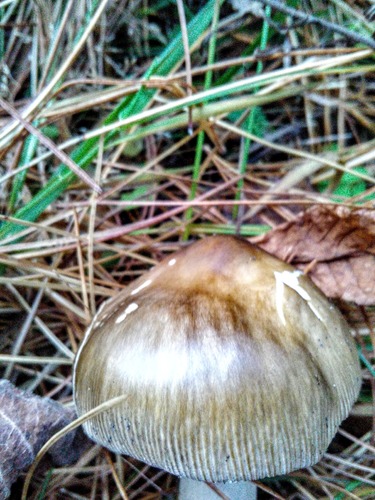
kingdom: Fungi
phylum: Basidiomycota
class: Agaricomycetes
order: Agaricales
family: Amanitaceae
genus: Amanita
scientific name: Amanita battarrae
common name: Banded amanita
